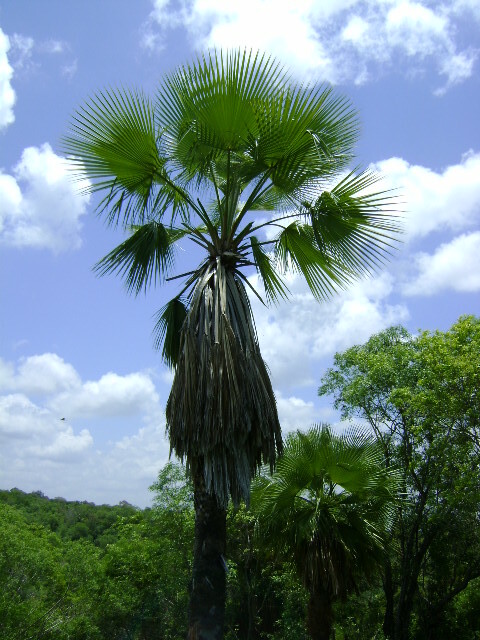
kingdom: Plantae
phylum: Tracheophyta
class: Liliopsida
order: Arecales
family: Arecaceae
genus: Brahea
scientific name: Brahea dulcis
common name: Apak palm
